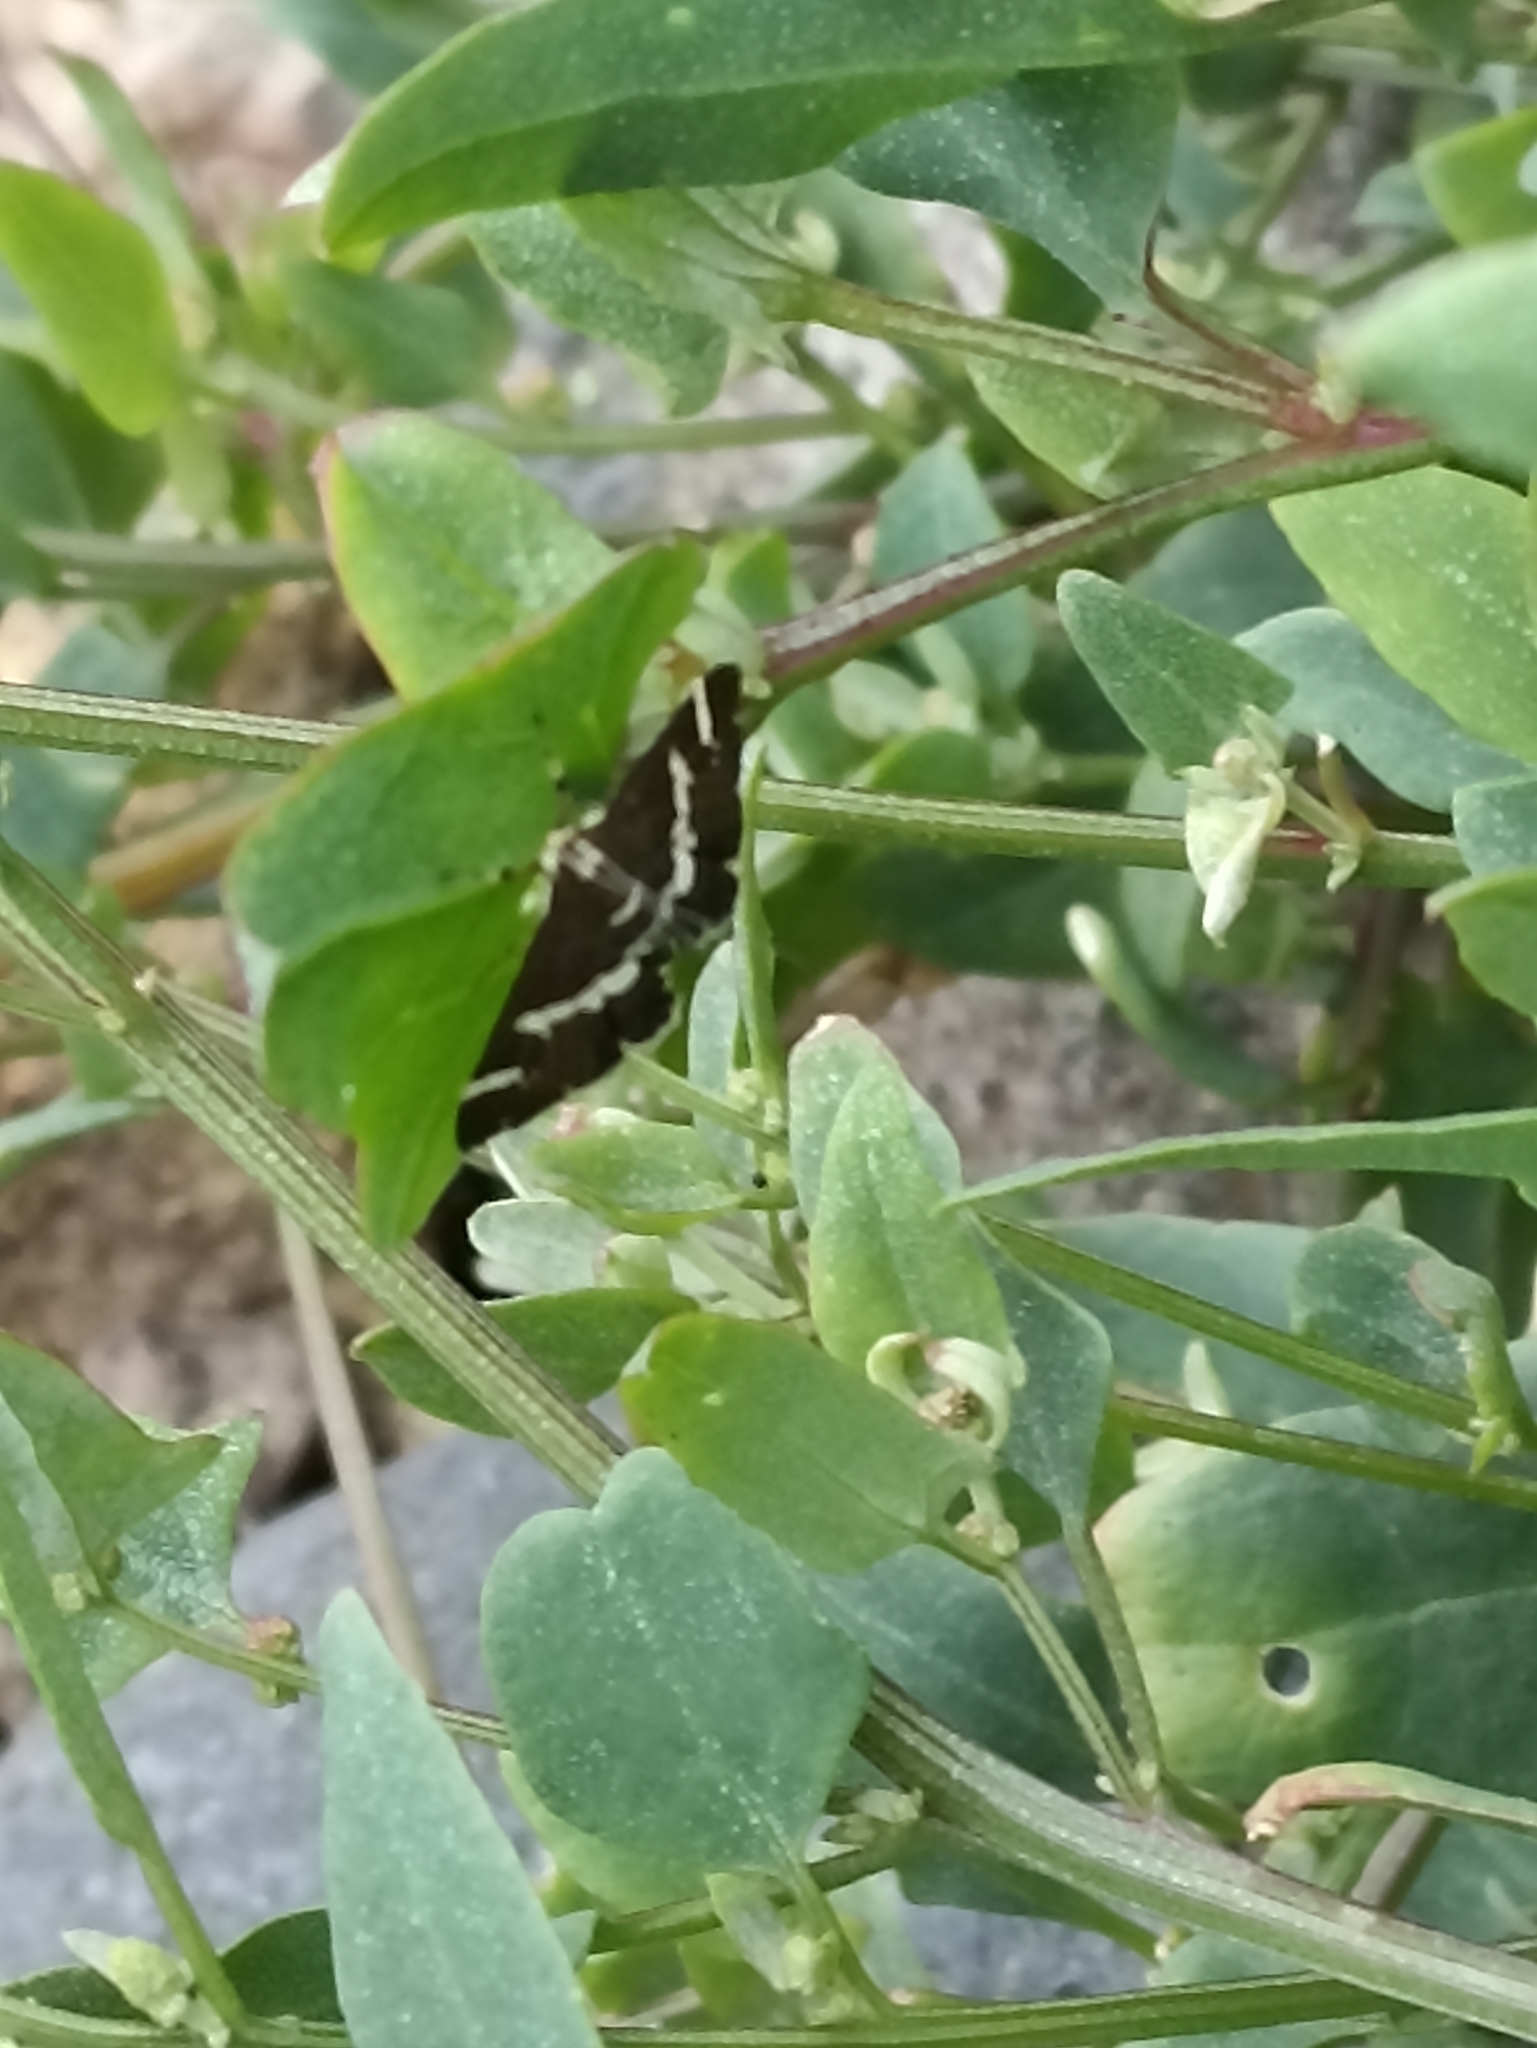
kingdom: Animalia
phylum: Arthropoda
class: Insecta
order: Lepidoptera
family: Crambidae
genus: Spoladea
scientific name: Spoladea recurvalis
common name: Beet webworm moth
